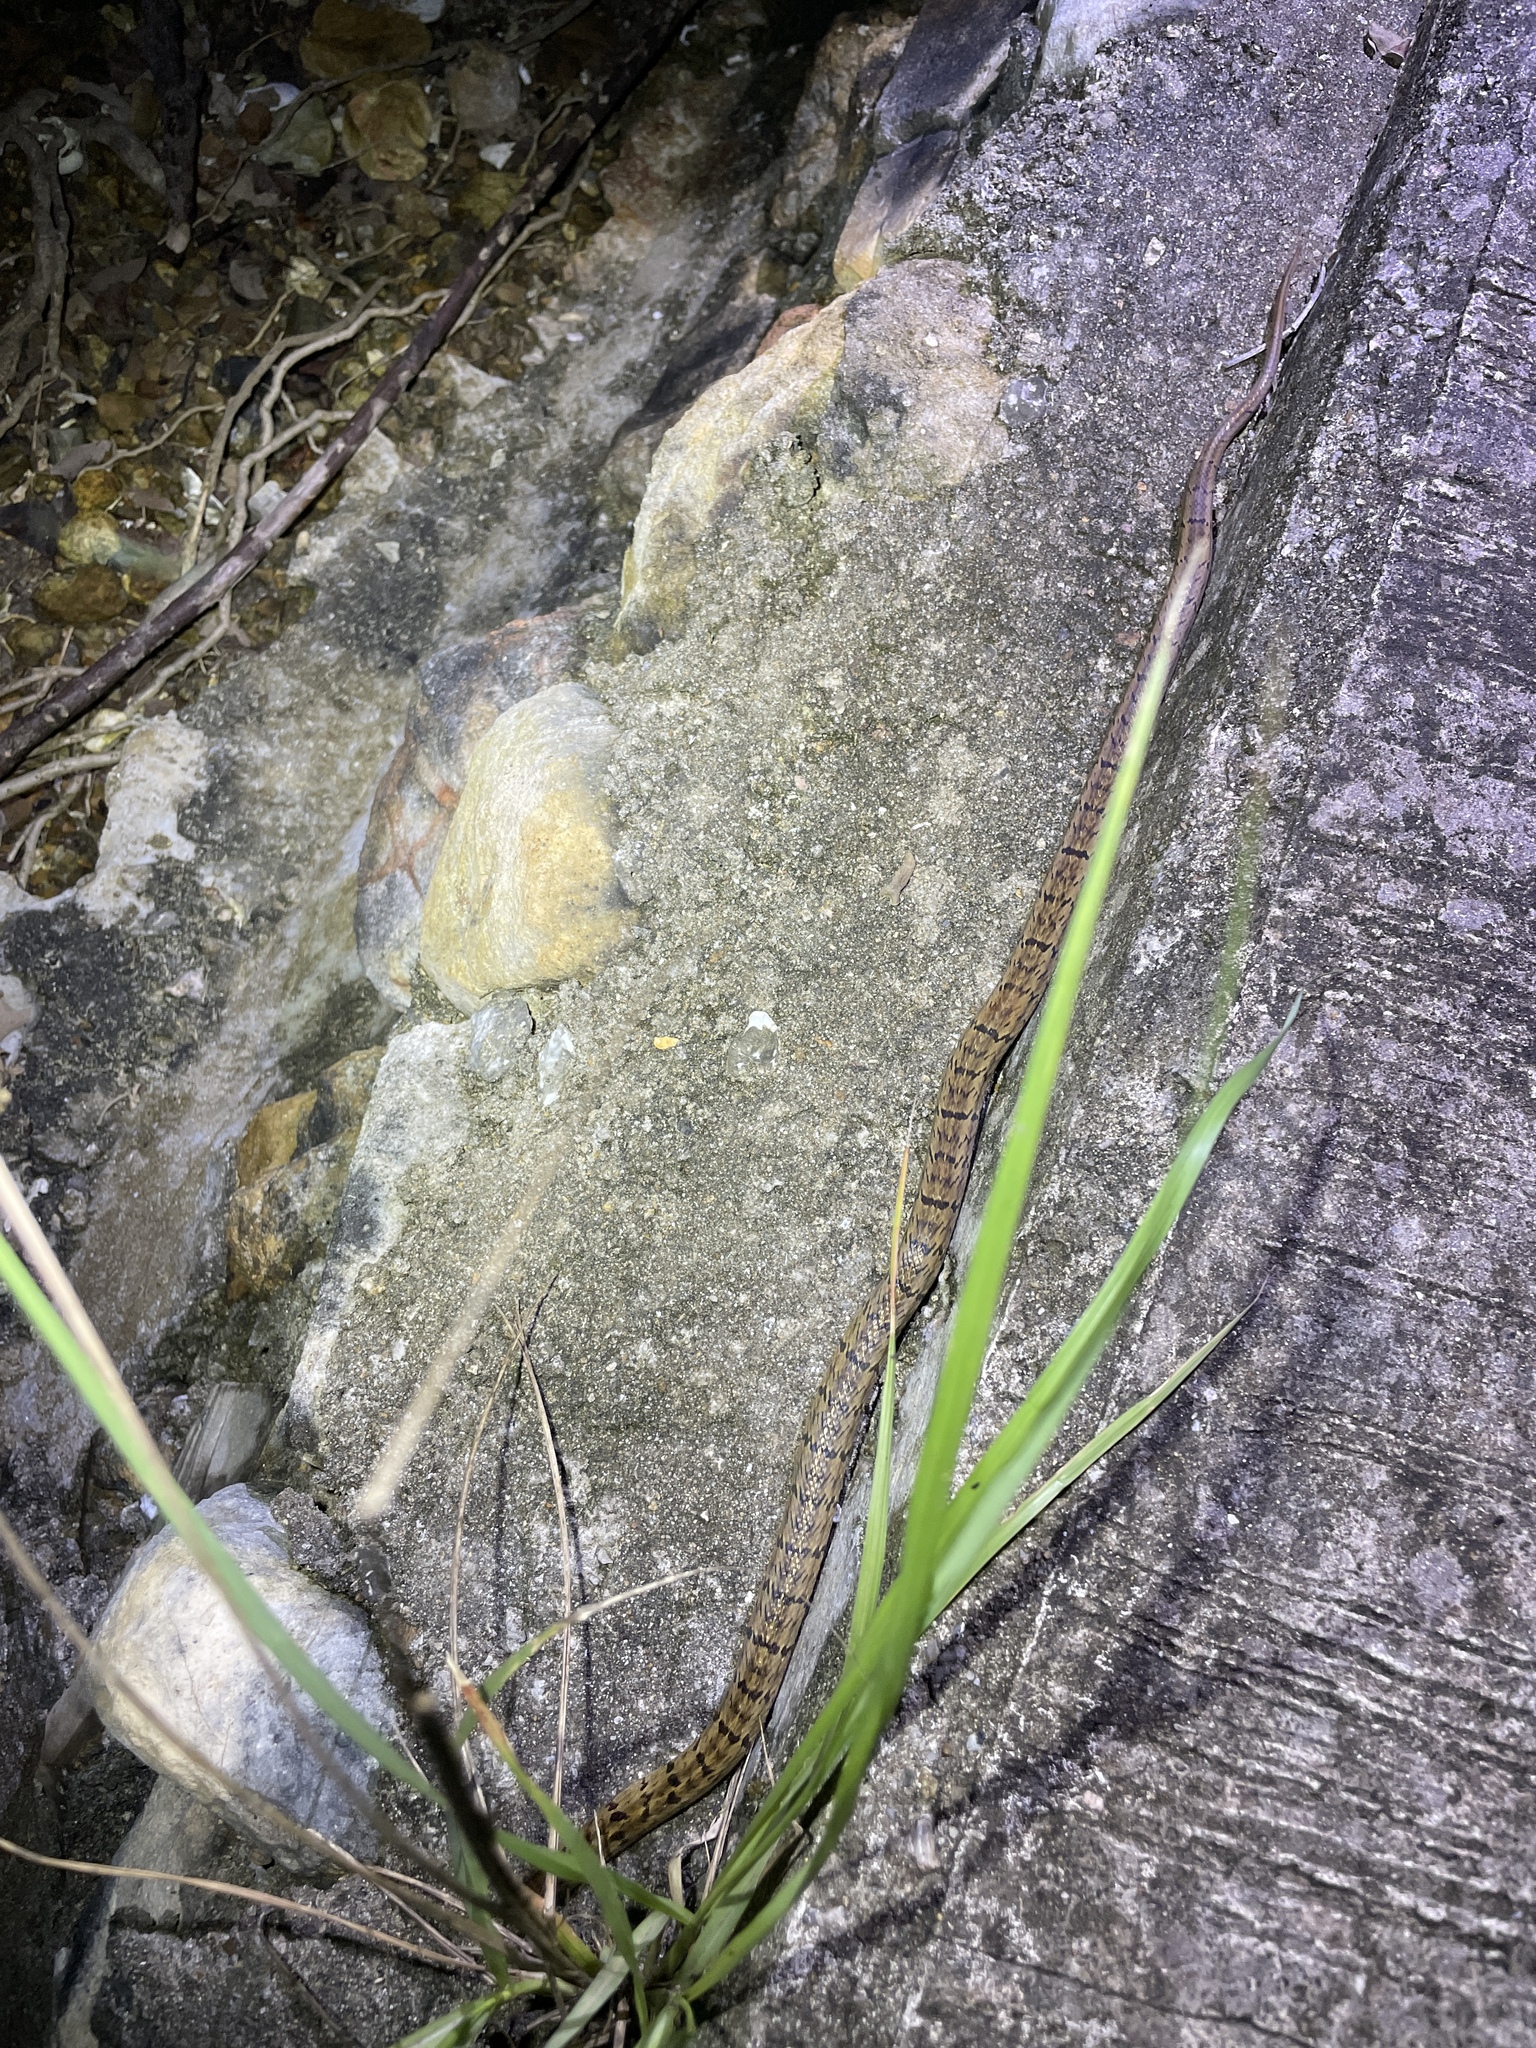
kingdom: Animalia
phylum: Chordata
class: Squamata
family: Colubridae
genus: Oligodon
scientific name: Oligodon formosanus
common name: Formosa kukri snake
